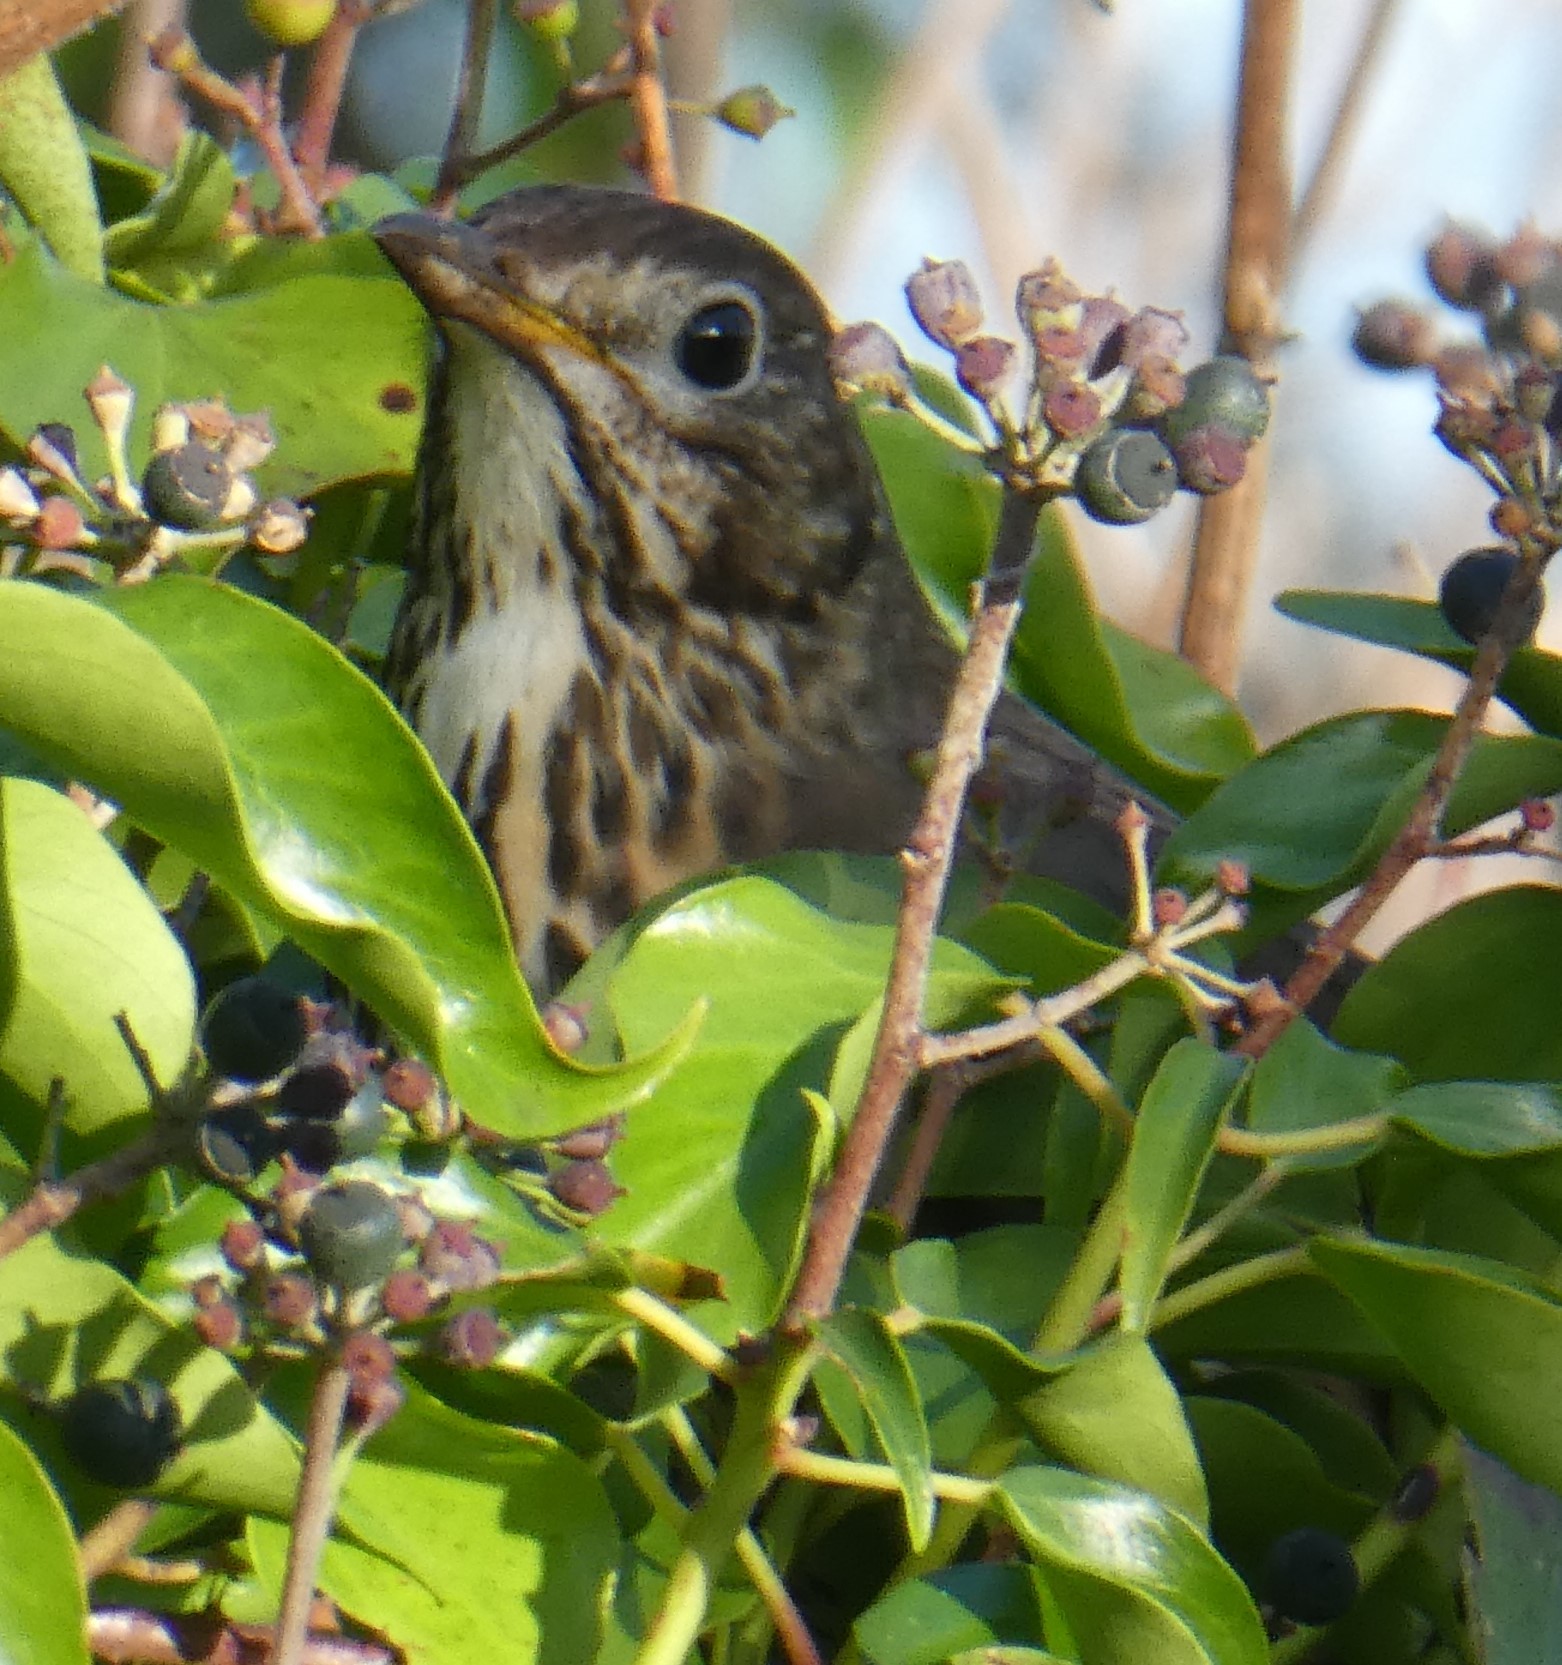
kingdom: Animalia
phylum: Chordata
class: Aves
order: Passeriformes
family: Turdidae
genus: Turdus
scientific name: Turdus philomelos
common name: Song thrush
